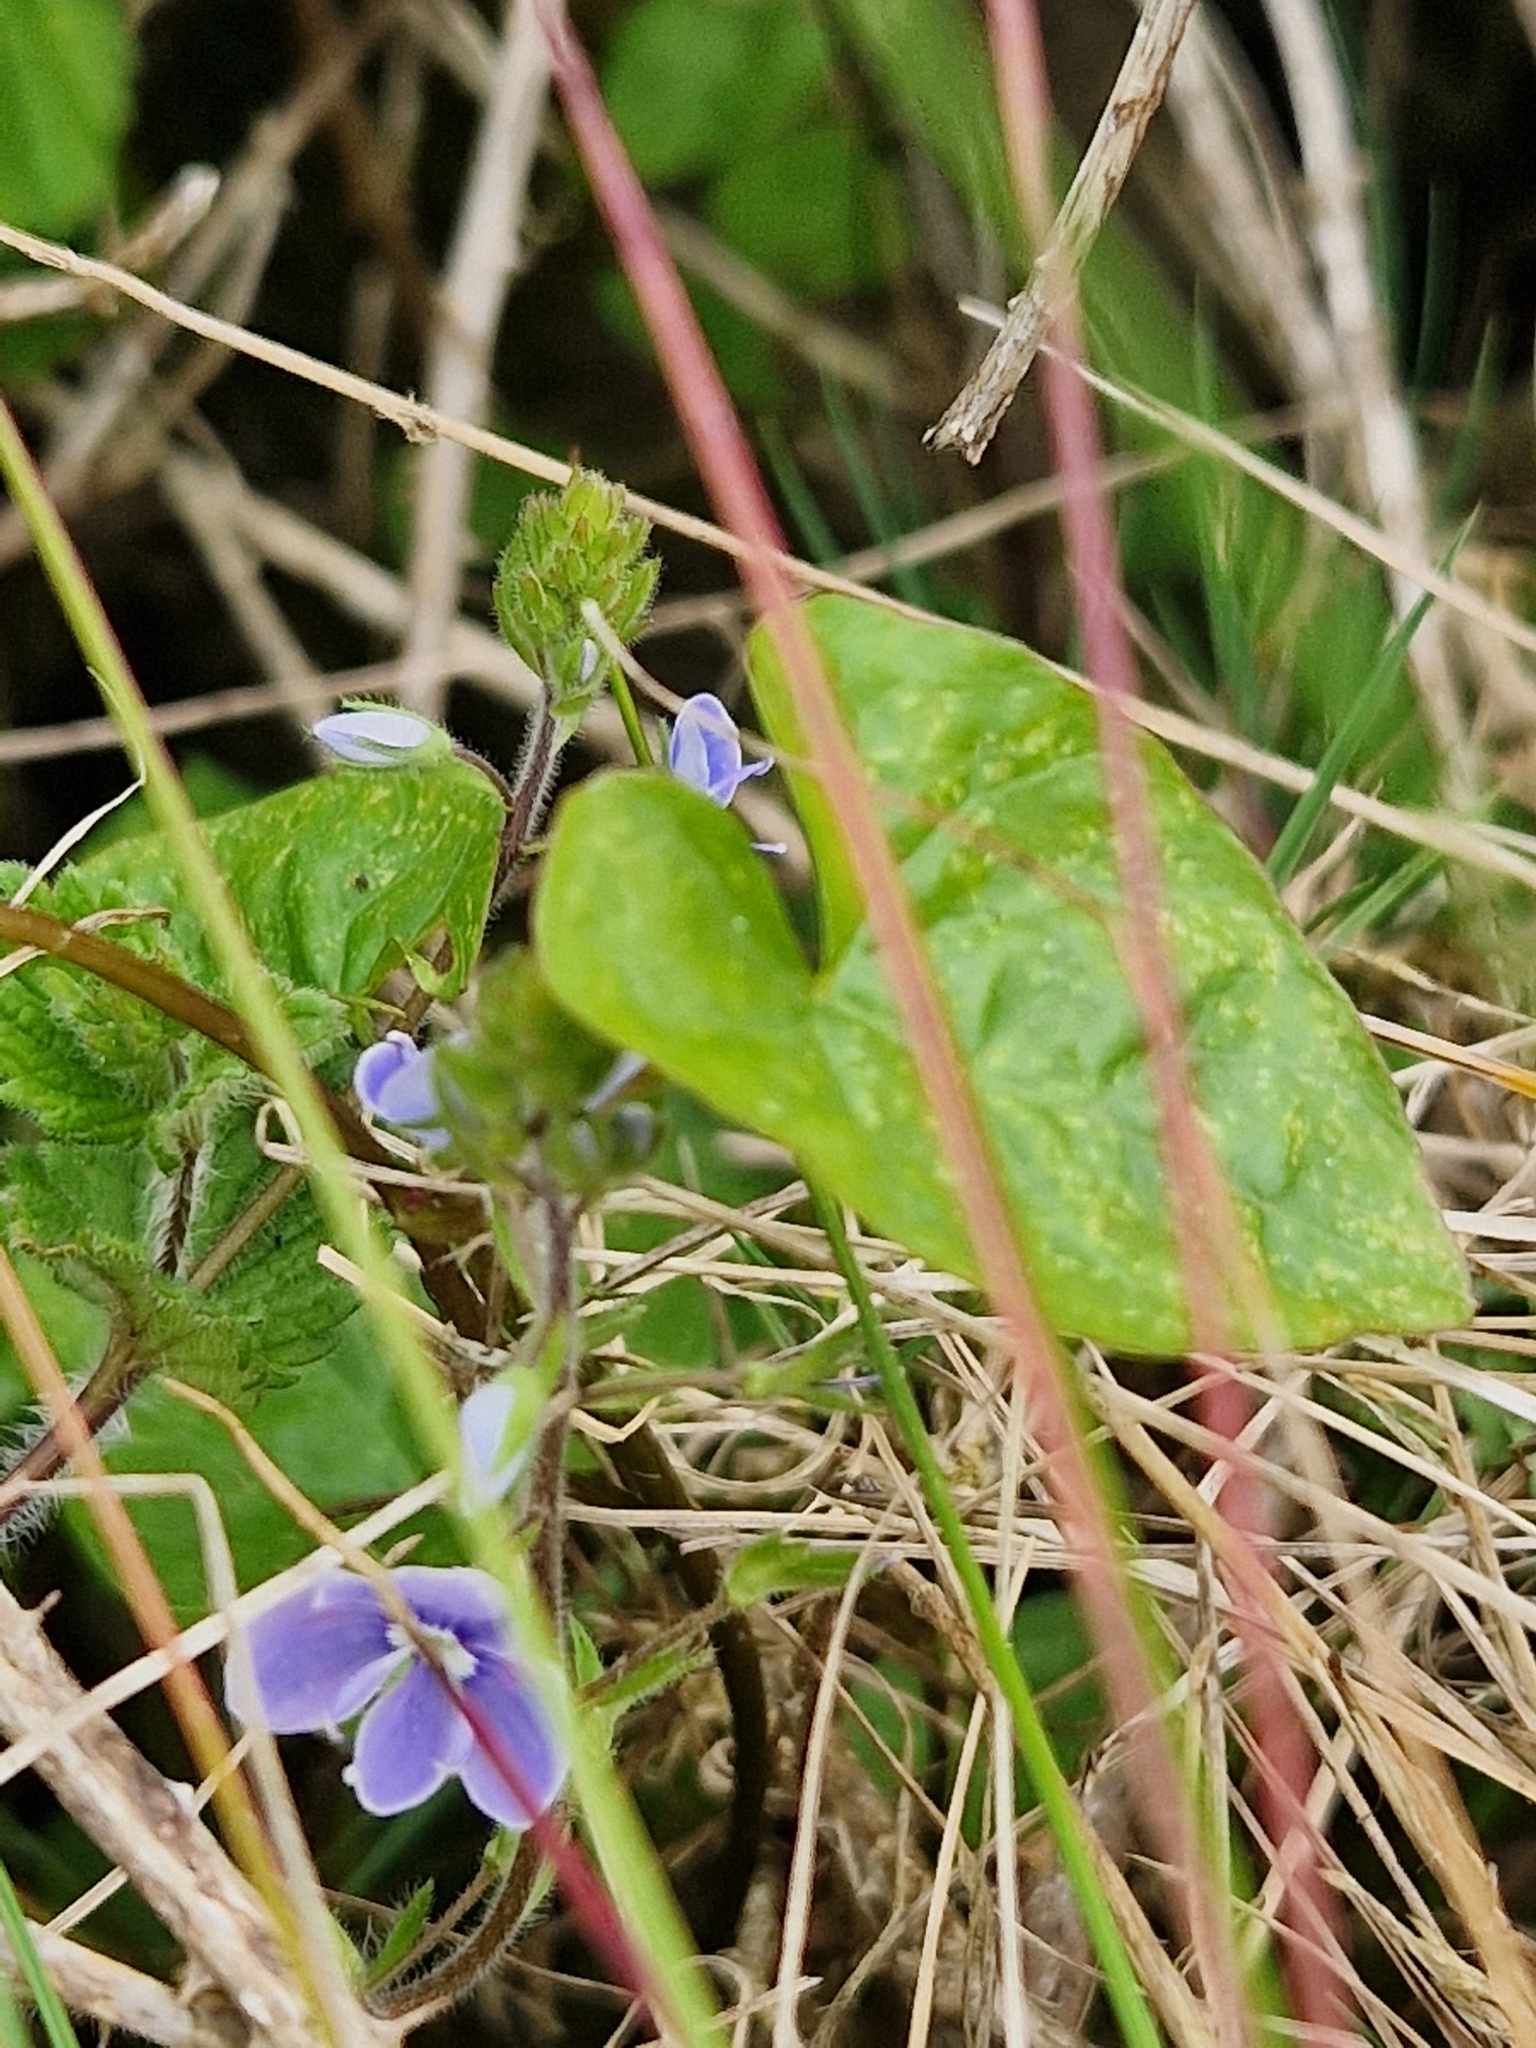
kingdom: Plantae
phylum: Tracheophyta
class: Magnoliopsida
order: Lamiales
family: Plantaginaceae
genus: Veronica
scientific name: Veronica chamaedrys
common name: Germander speedwell
